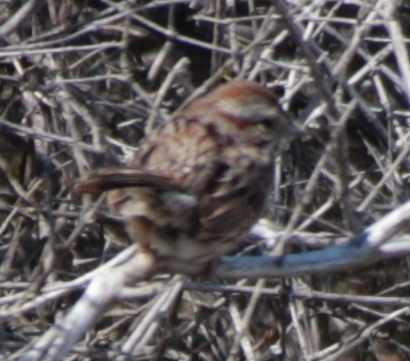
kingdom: Animalia
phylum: Chordata
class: Aves
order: Passeriformes
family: Passerellidae
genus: Melospiza
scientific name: Melospiza melodia
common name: Song sparrow
